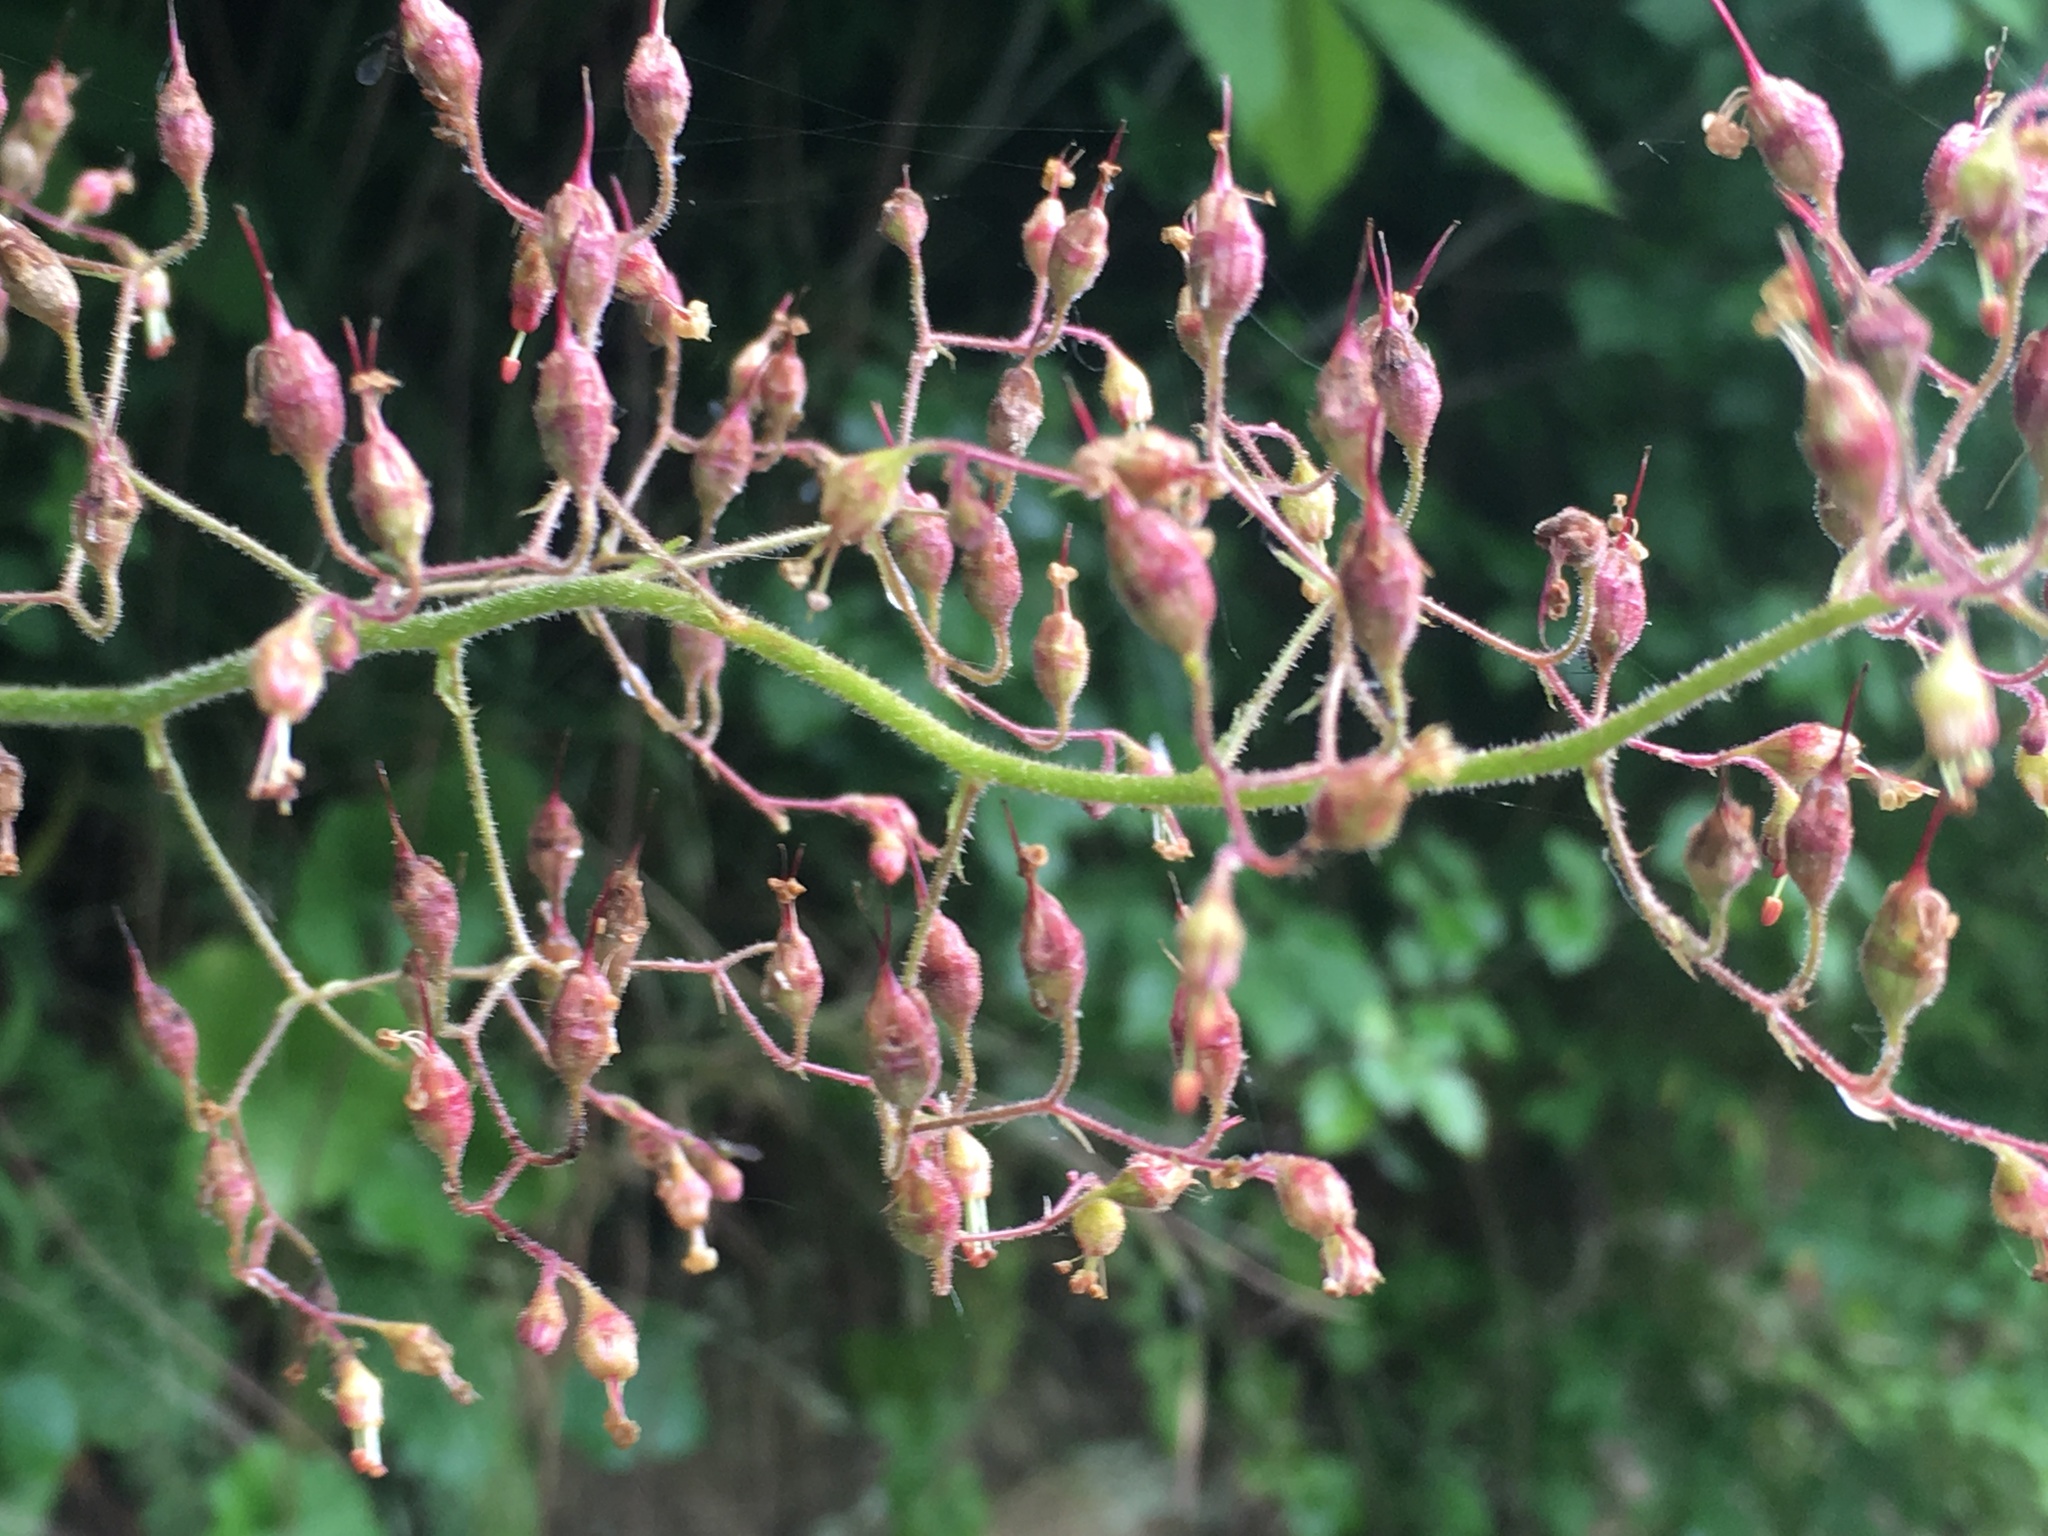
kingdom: Plantae
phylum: Tracheophyta
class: Magnoliopsida
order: Saxifragales
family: Saxifragaceae
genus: Heuchera
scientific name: Heuchera americana
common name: Alumroot
